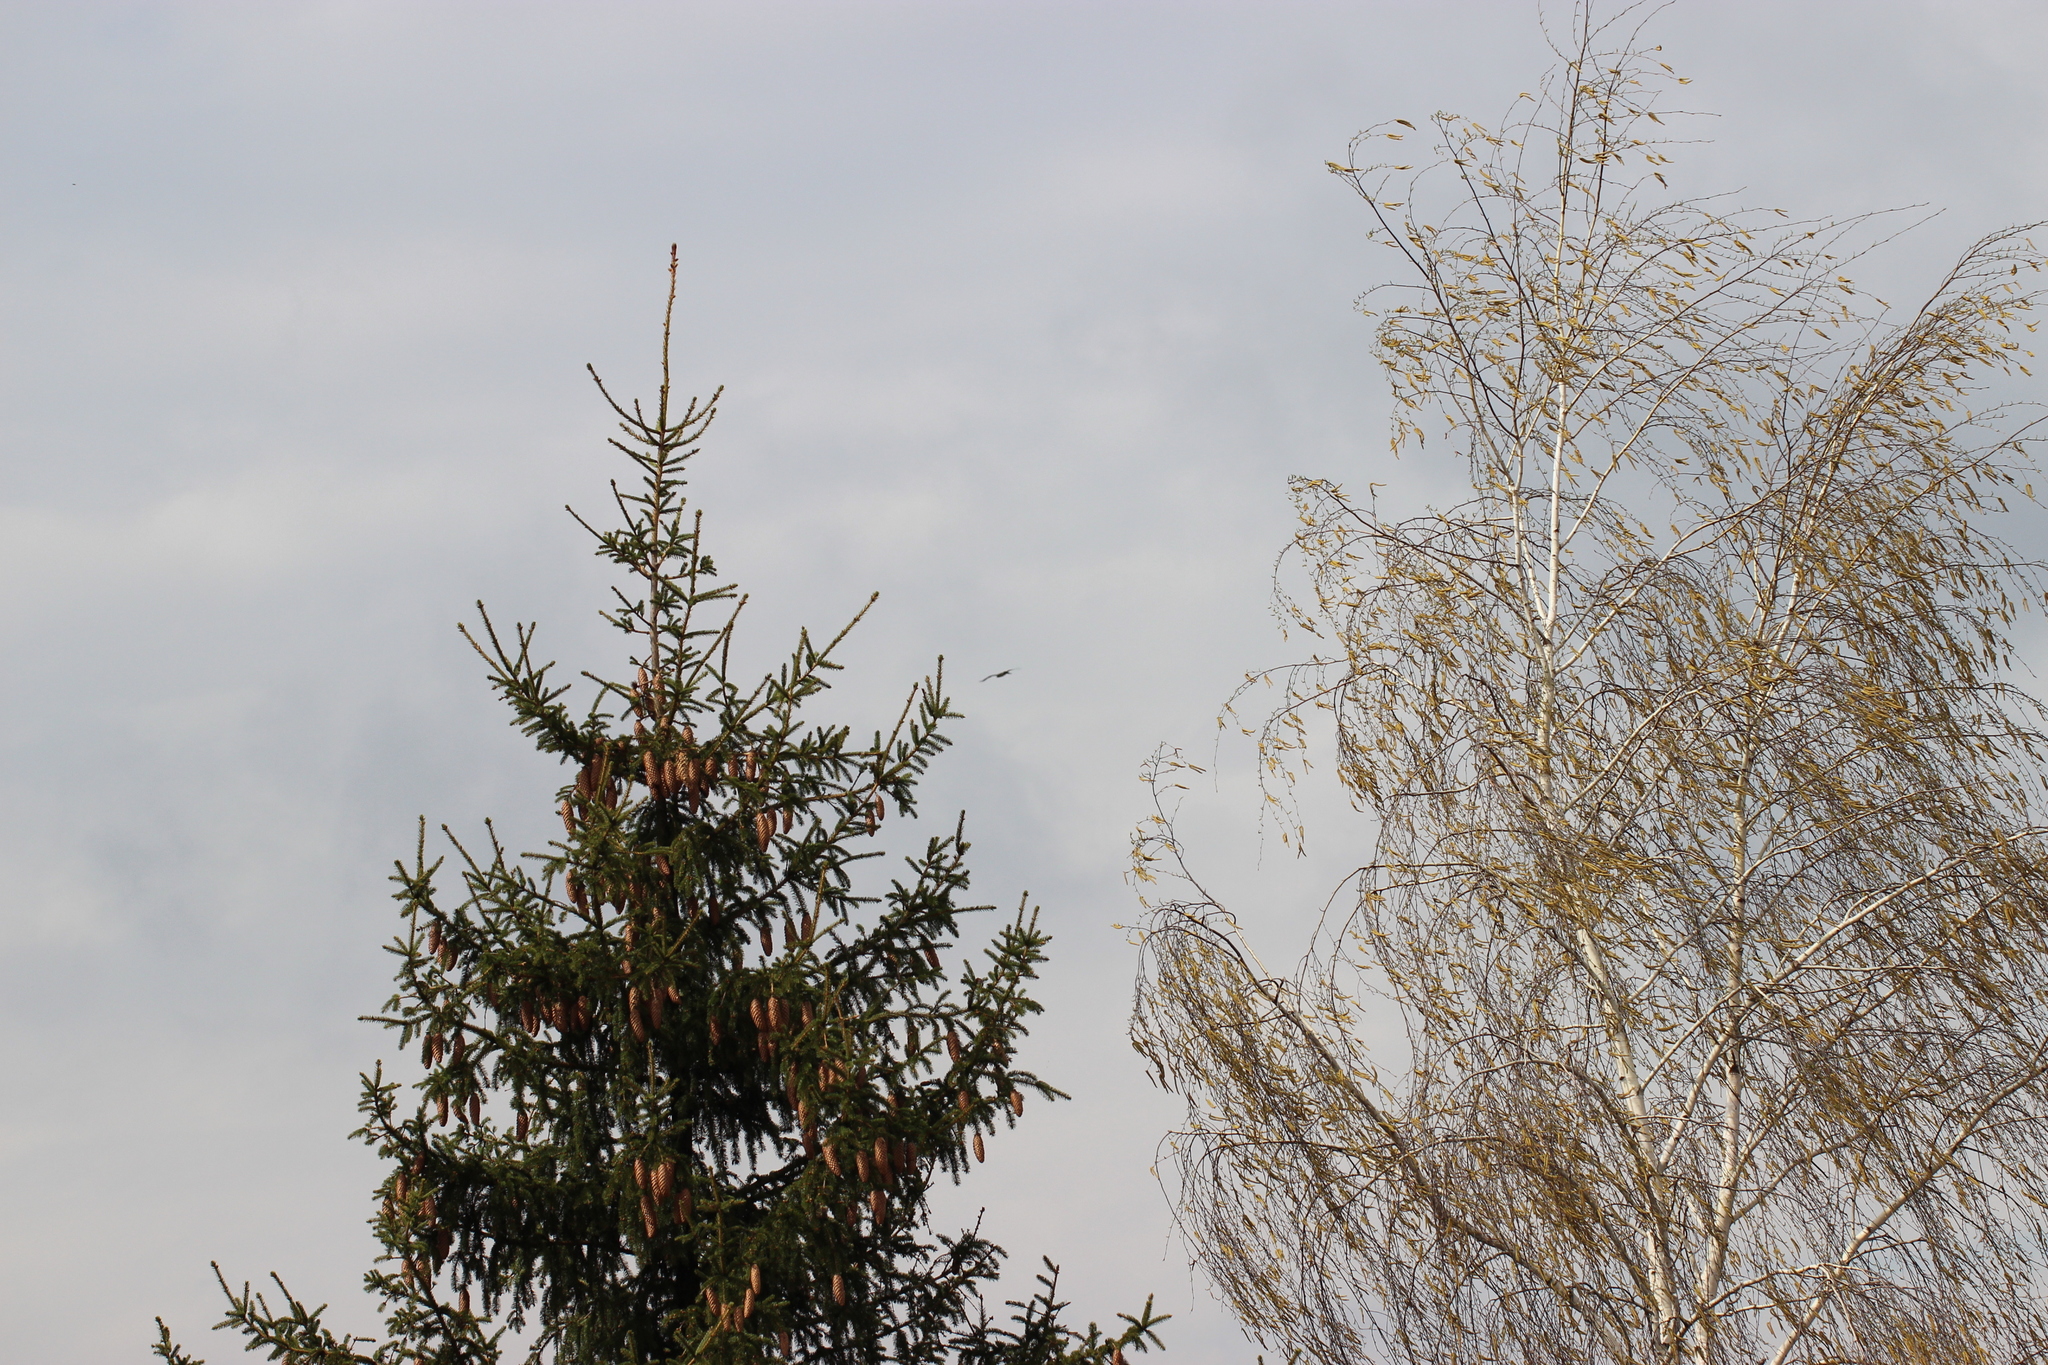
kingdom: Plantae
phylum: Tracheophyta
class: Pinopsida
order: Pinales
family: Pinaceae
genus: Picea
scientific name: Picea abies
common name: Norway spruce
